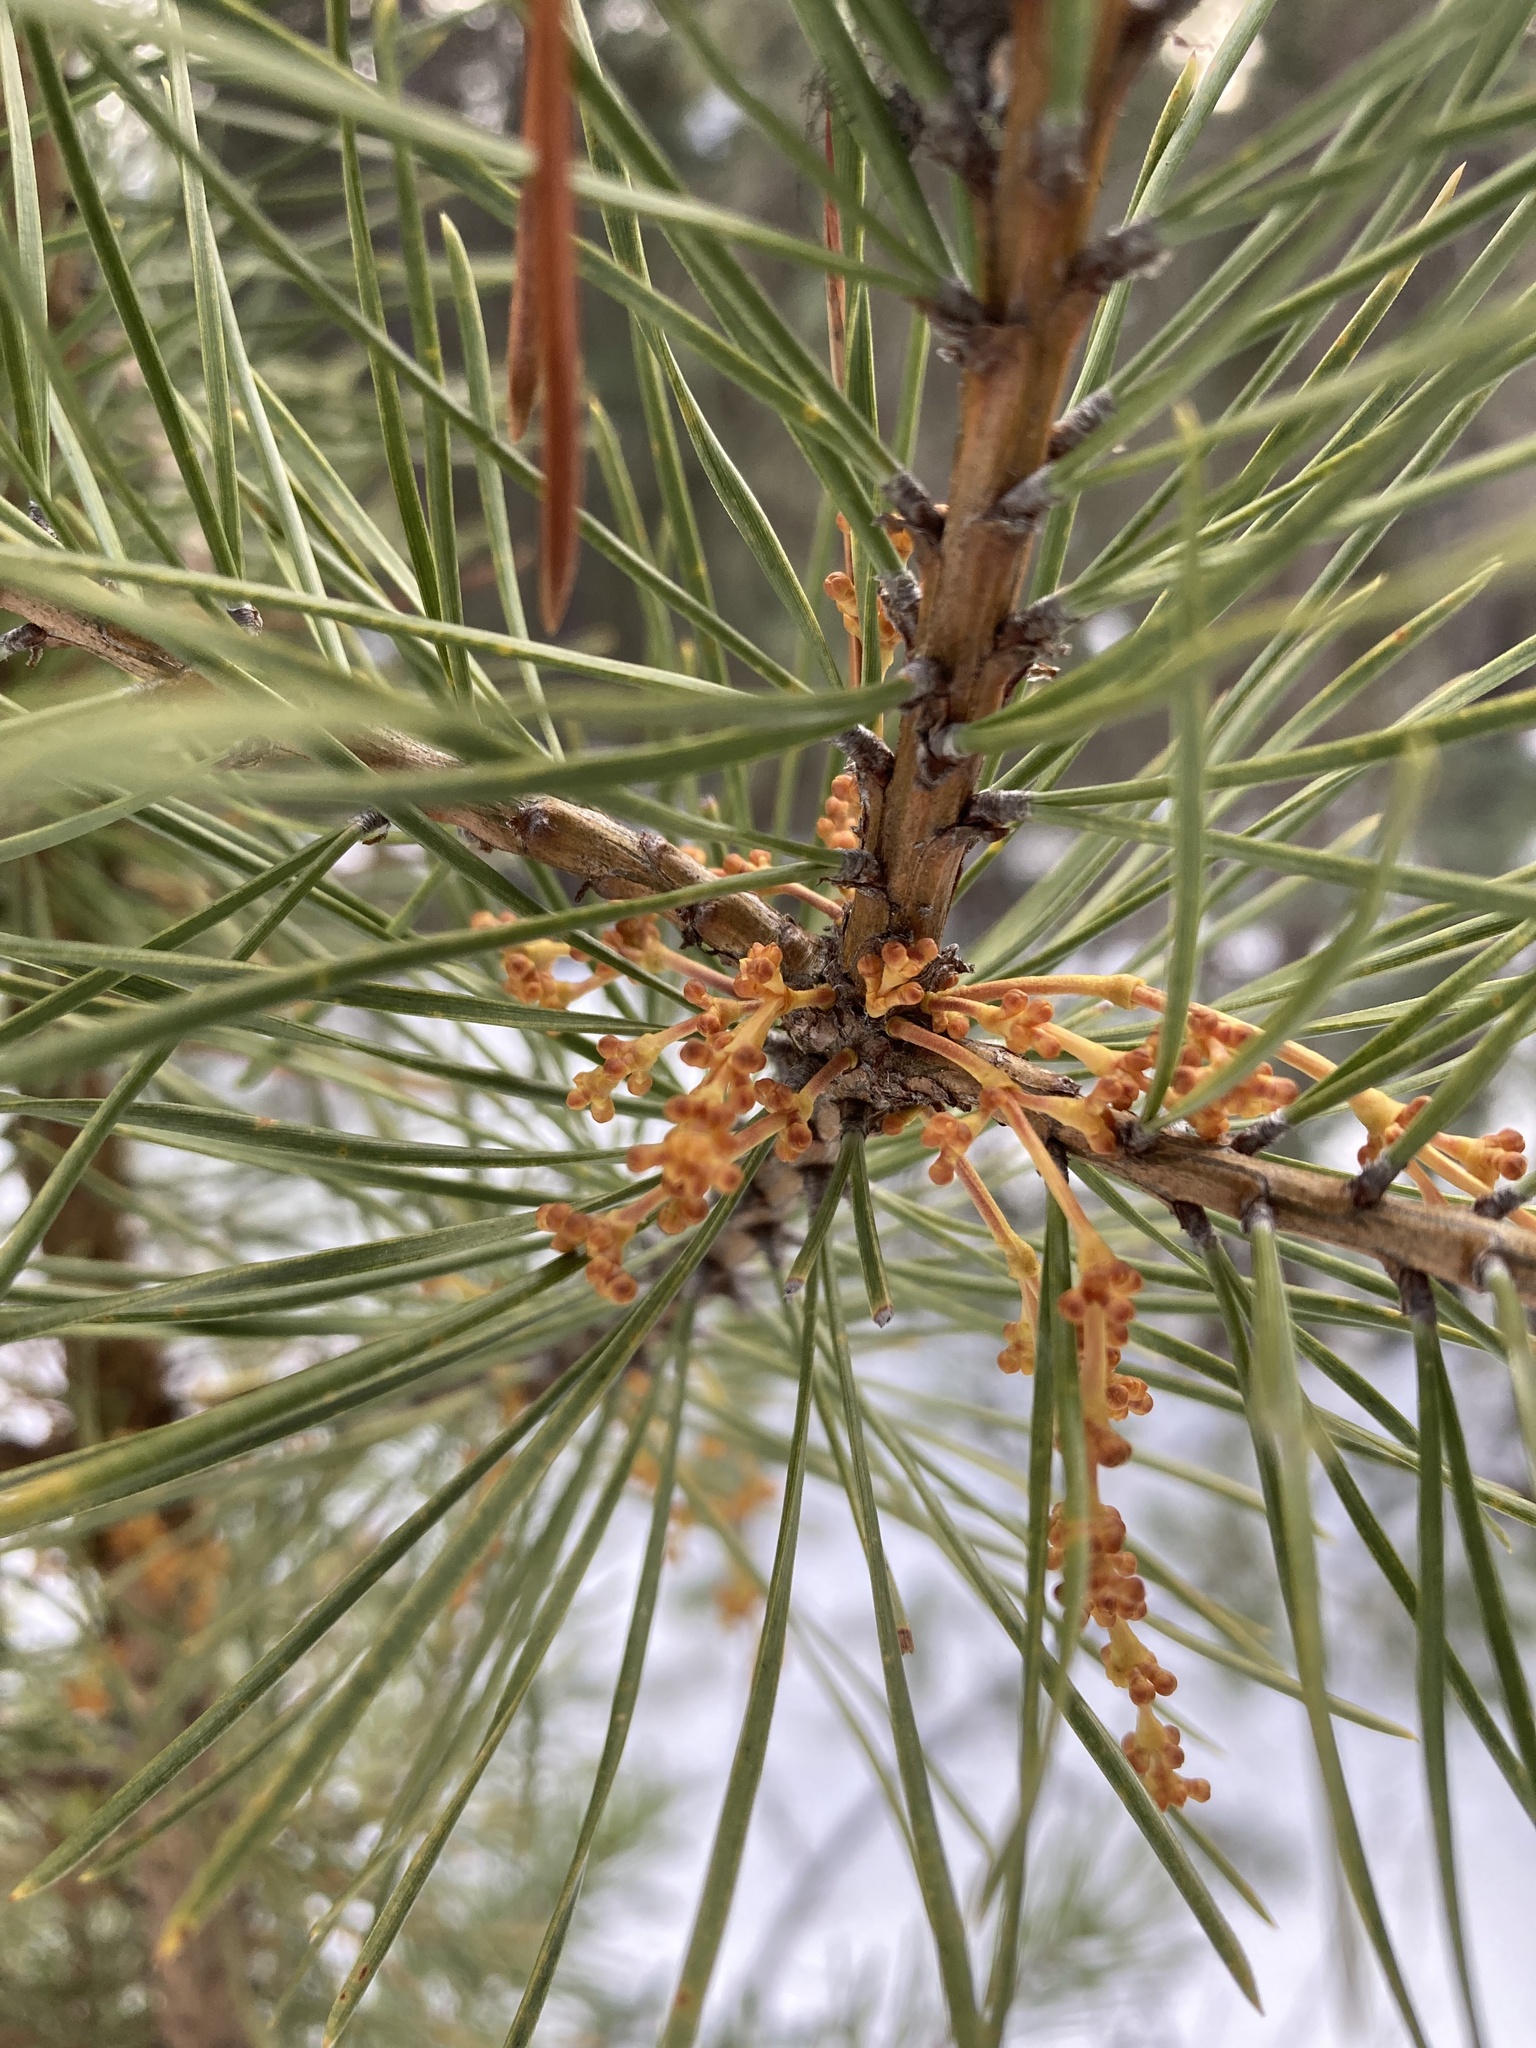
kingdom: Plantae
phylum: Tracheophyta
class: Magnoliopsida
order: Santalales
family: Viscaceae
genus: Arceuthobium
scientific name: Arceuthobium americanum
